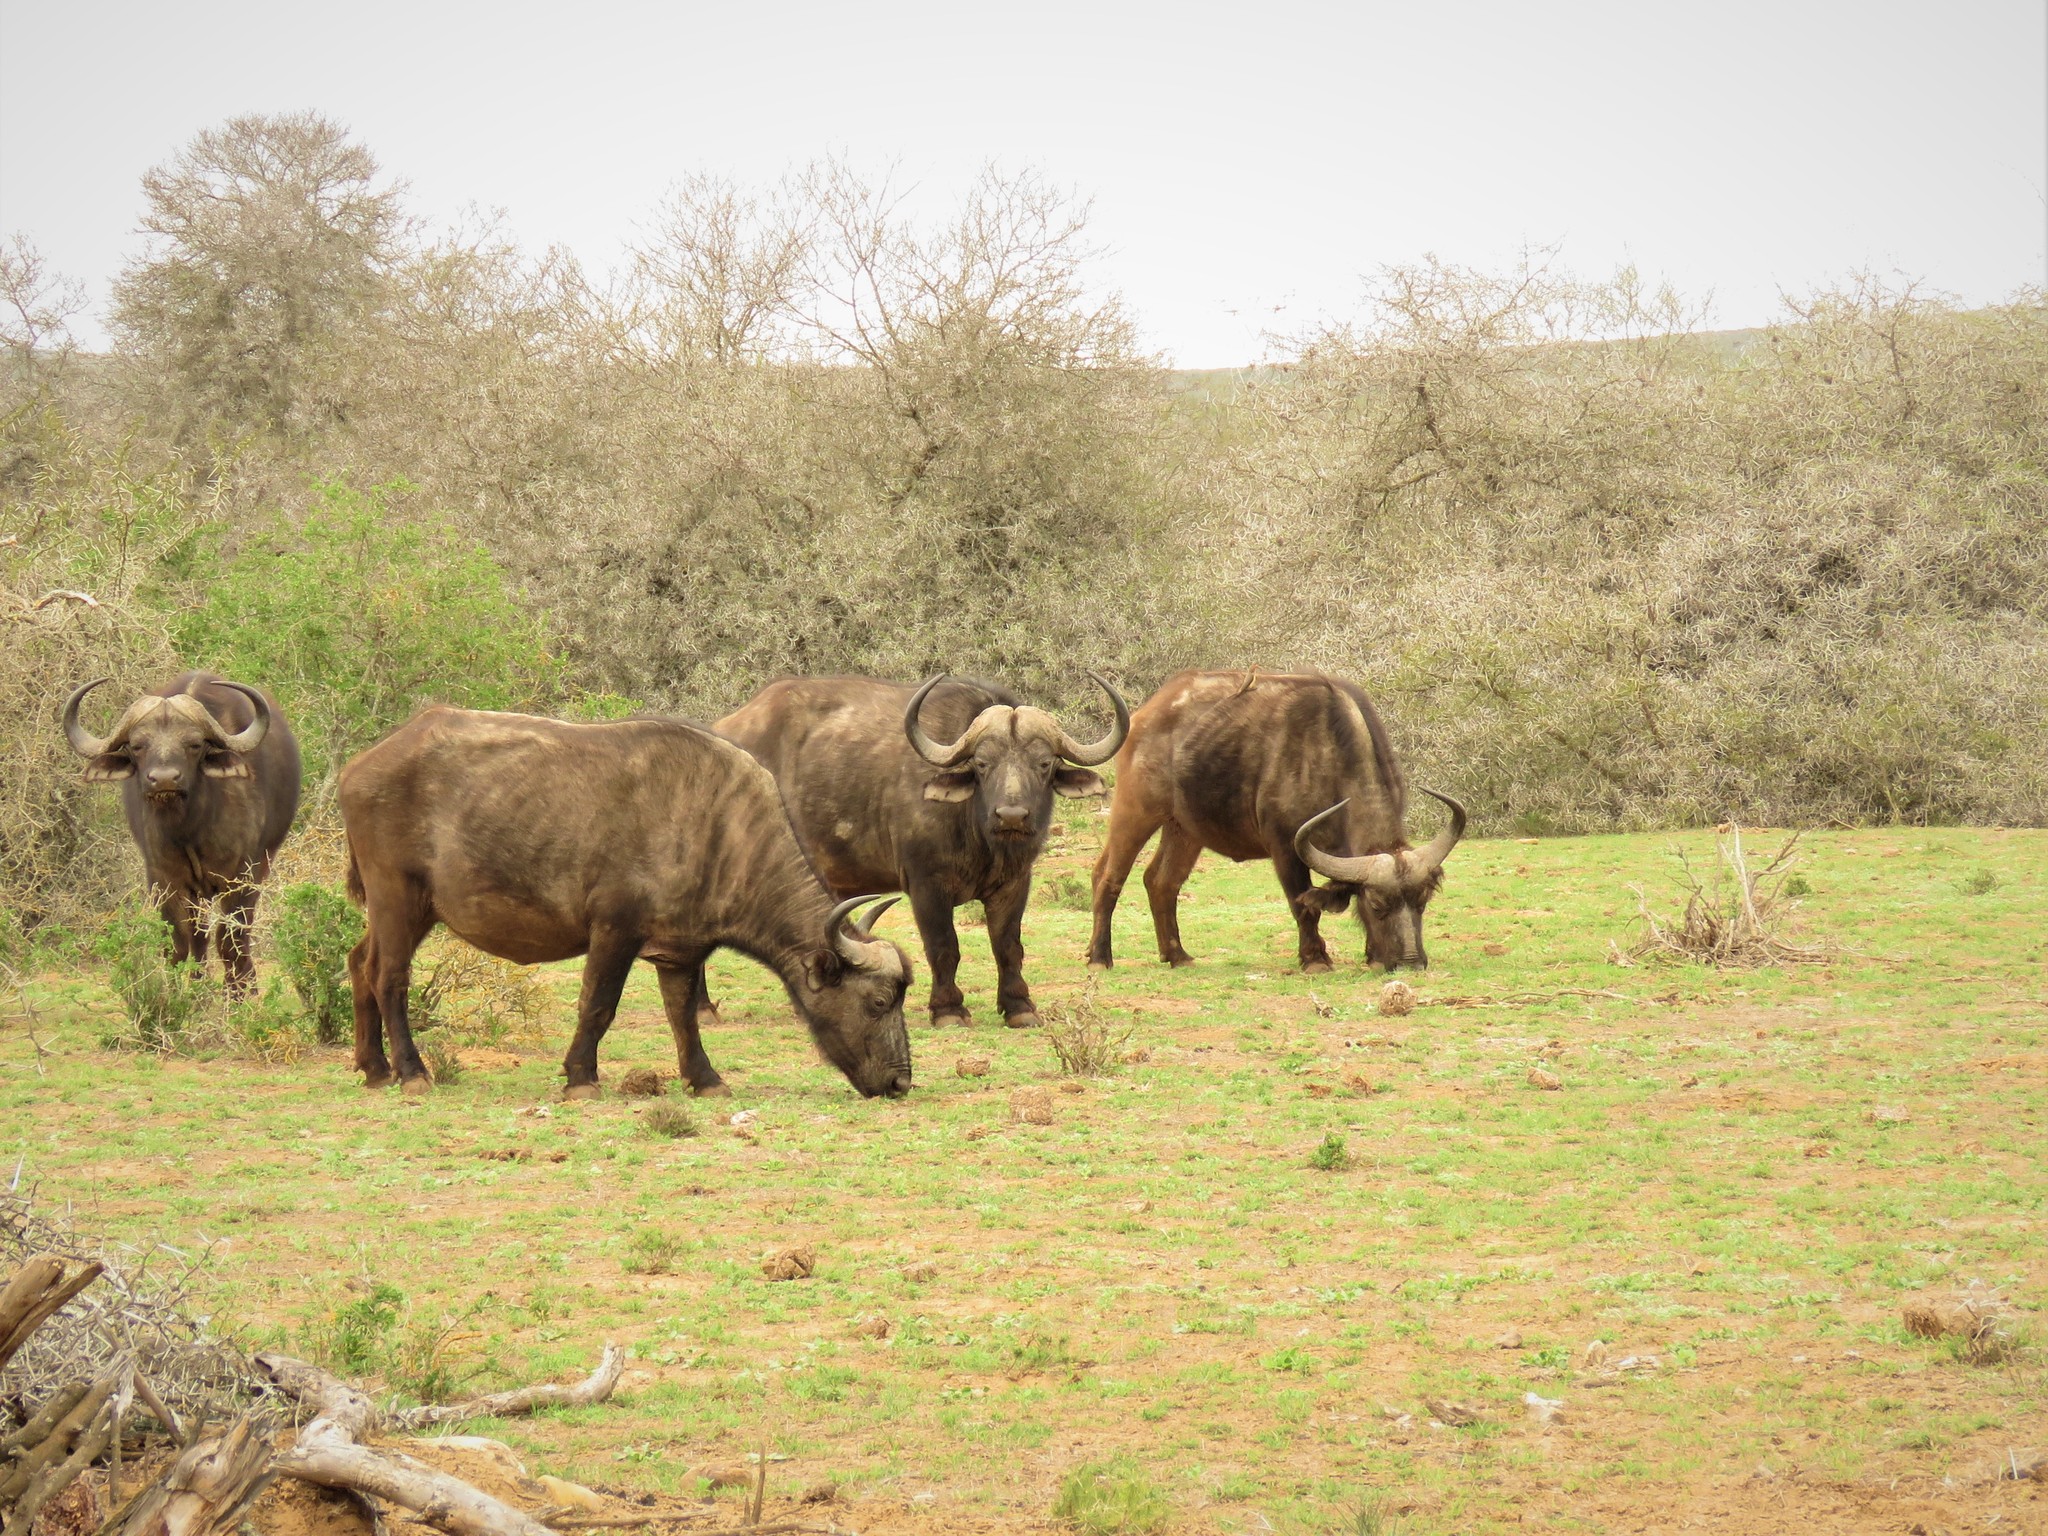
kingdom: Animalia
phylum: Chordata
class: Mammalia
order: Artiodactyla
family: Bovidae
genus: Syncerus
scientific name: Syncerus caffer
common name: African buffalo
